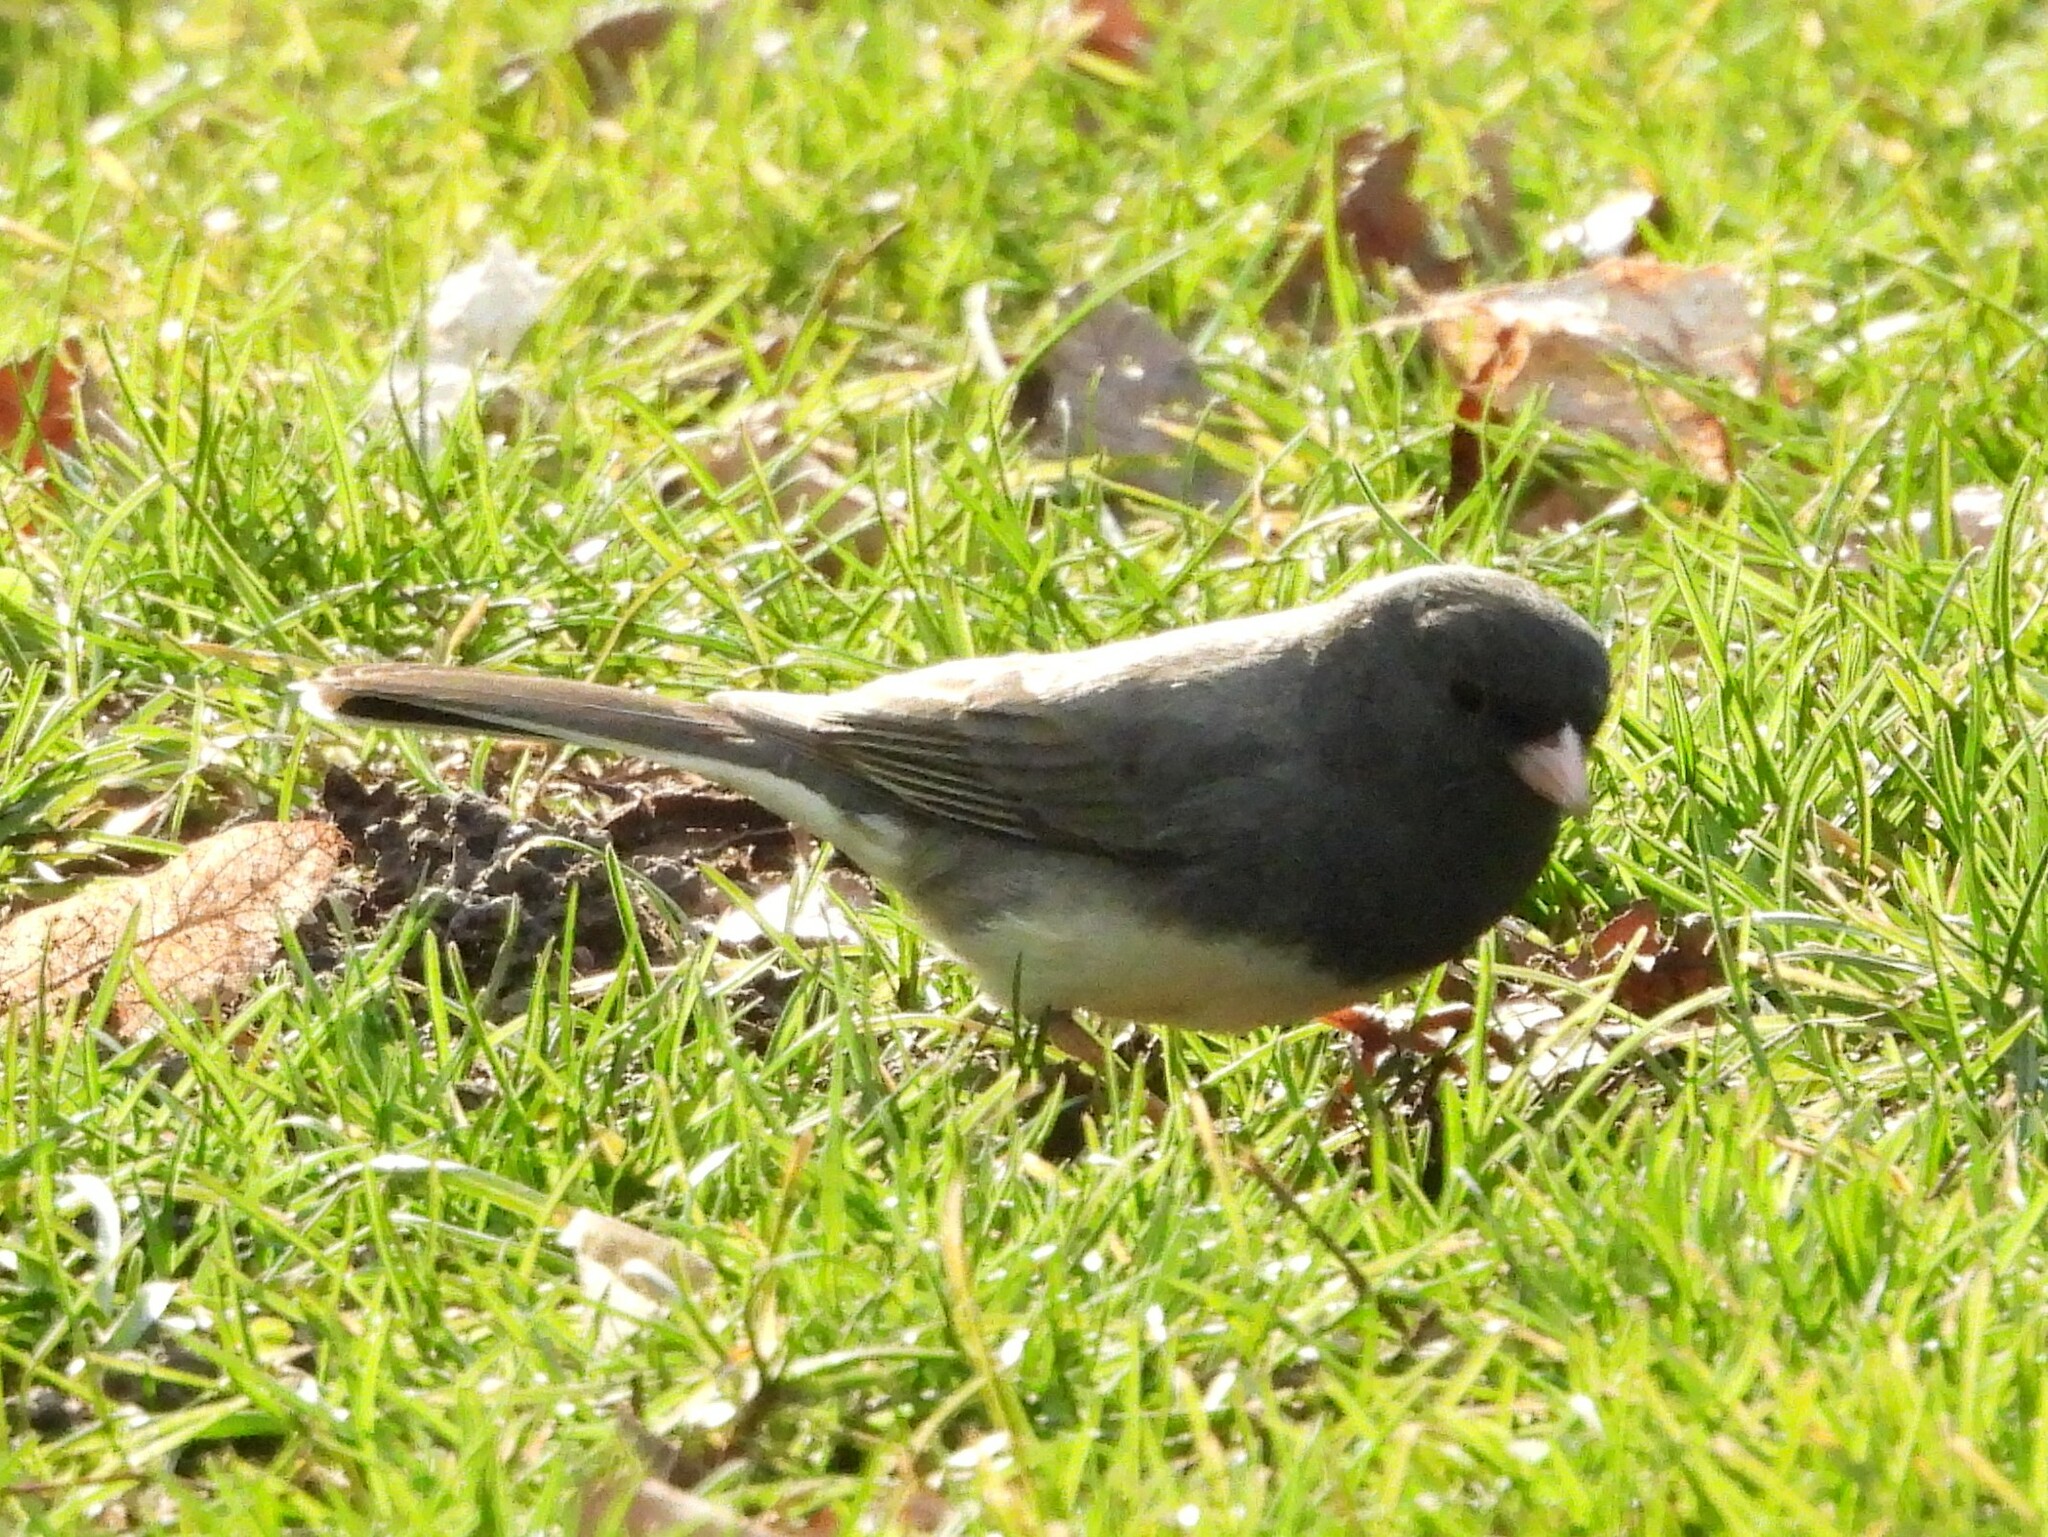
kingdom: Animalia
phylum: Chordata
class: Aves
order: Passeriformes
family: Passerellidae
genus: Junco
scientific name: Junco hyemalis
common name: Dark-eyed junco
